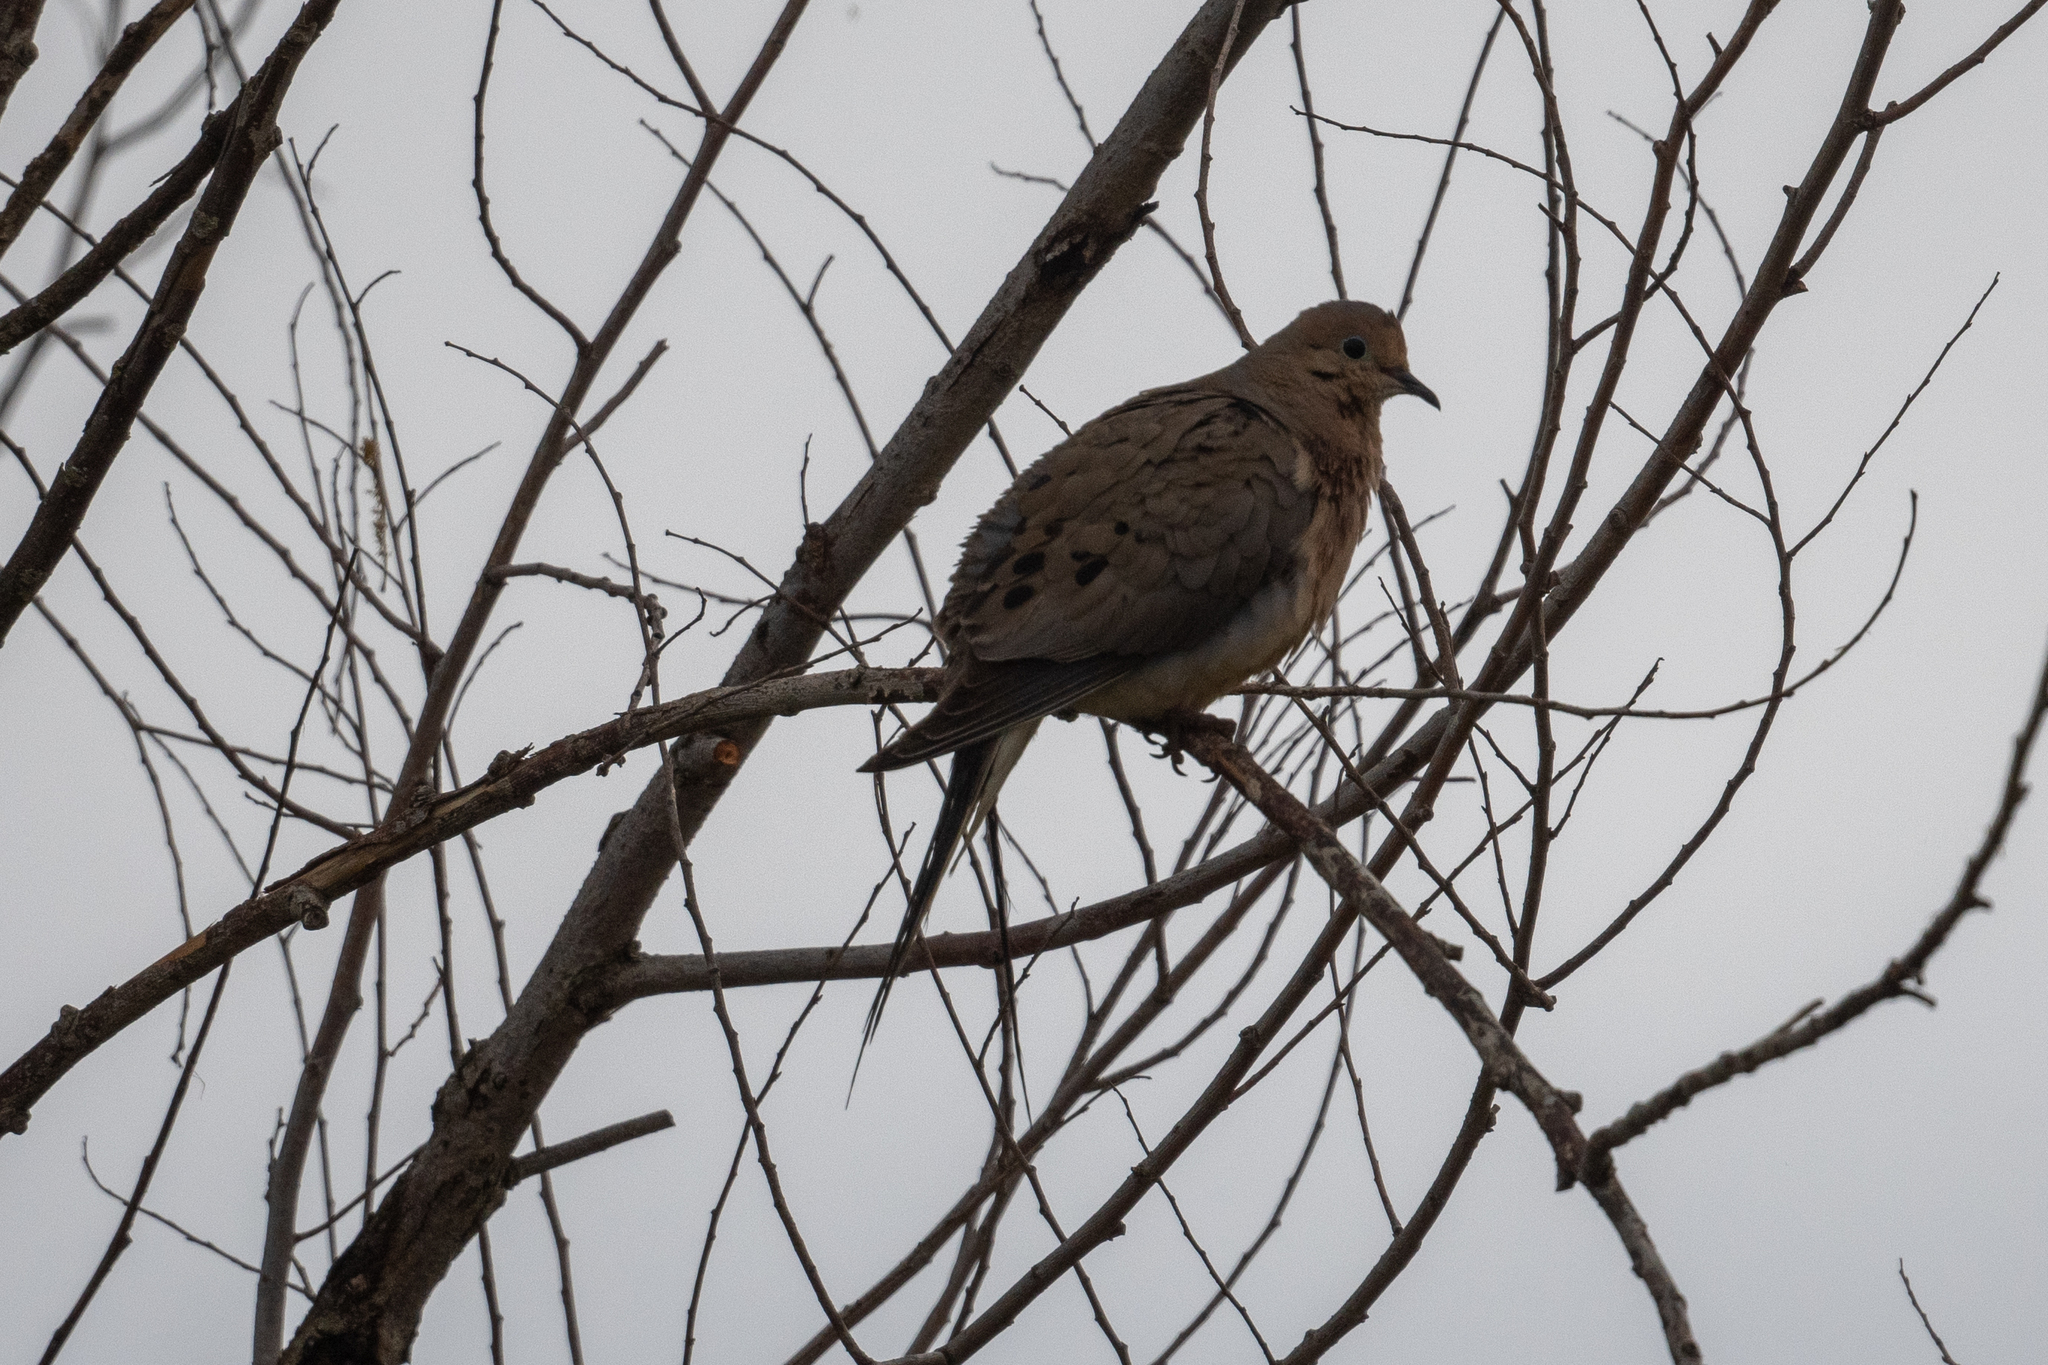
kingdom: Animalia
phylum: Chordata
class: Aves
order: Columbiformes
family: Columbidae
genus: Zenaida
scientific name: Zenaida macroura
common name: Mourning dove
